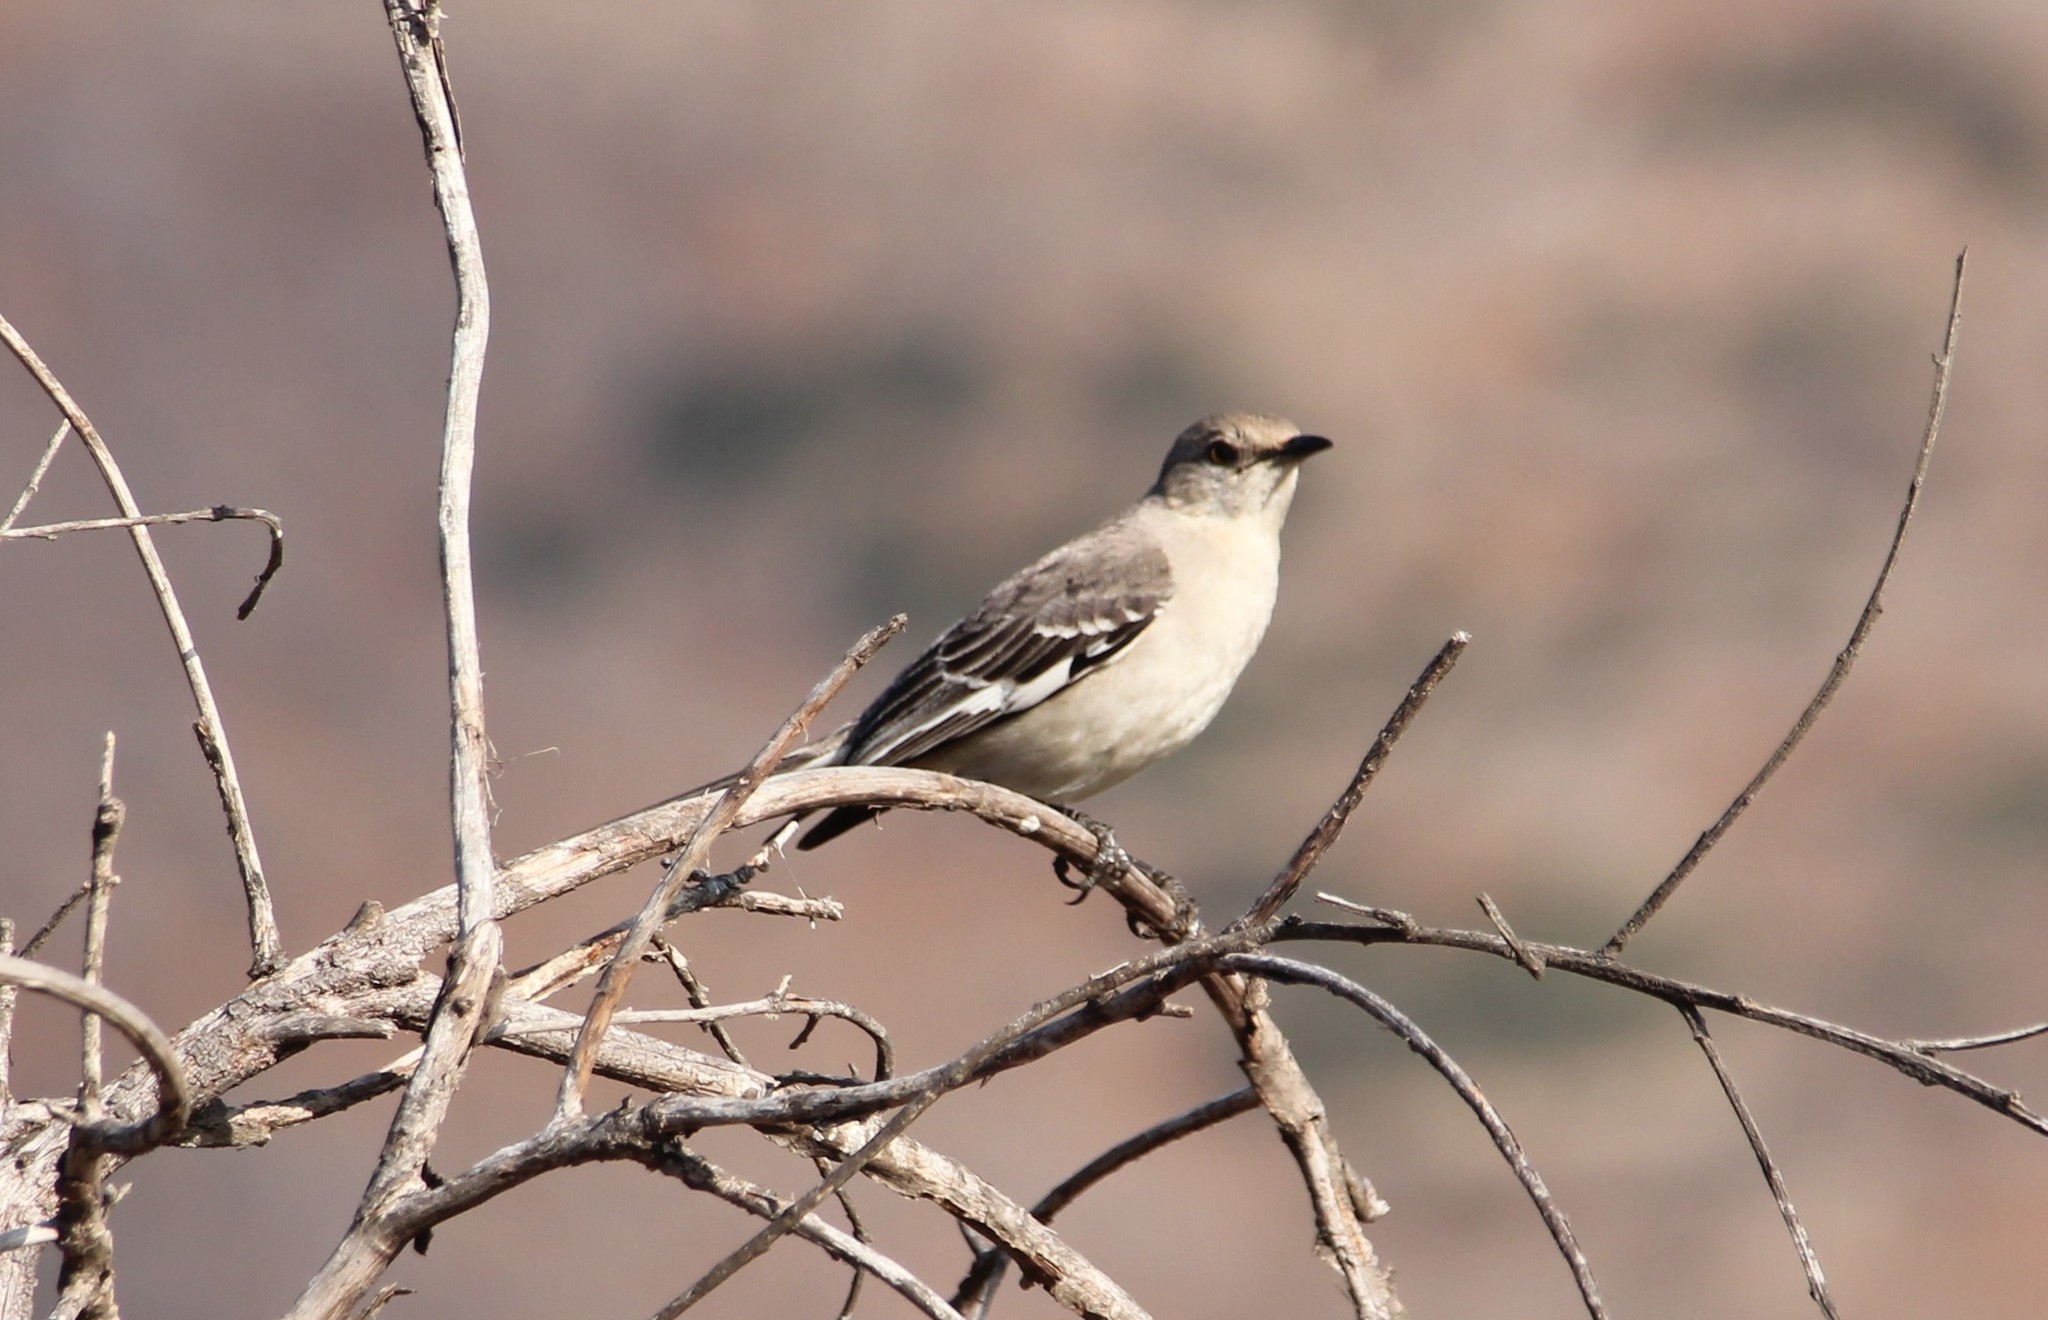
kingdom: Animalia
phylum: Chordata
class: Aves
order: Passeriformes
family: Mimidae
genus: Mimus
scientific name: Mimus polyglottos
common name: Northern mockingbird
